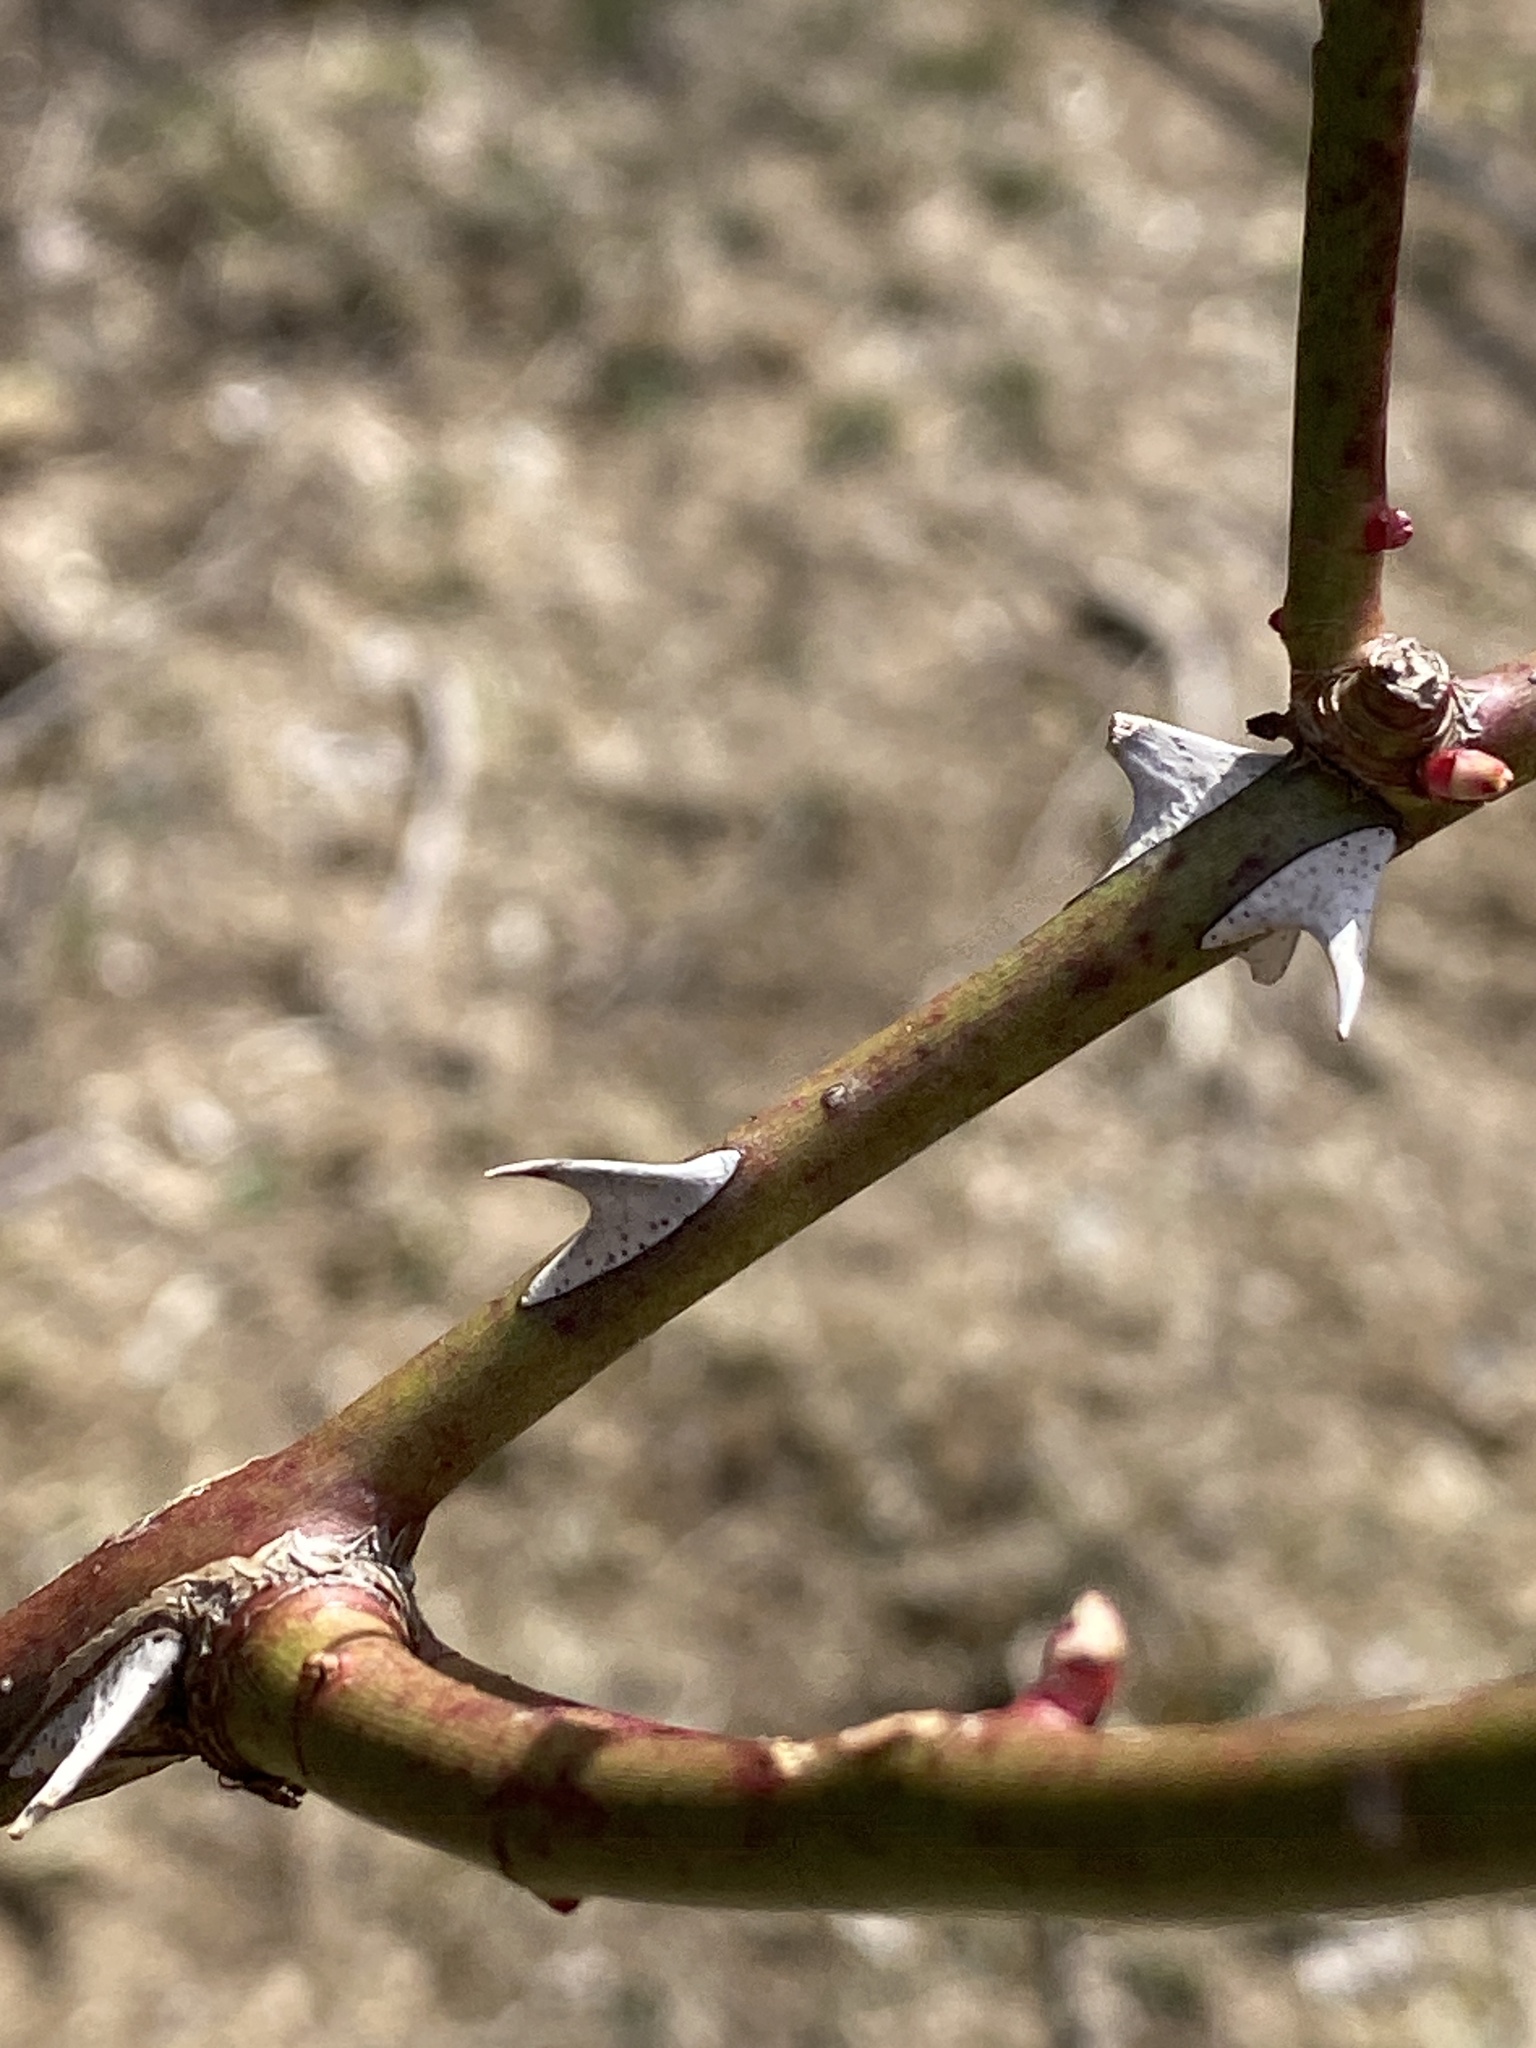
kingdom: Plantae
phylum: Tracheophyta
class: Magnoliopsida
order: Rosales
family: Rosaceae
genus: Rosa
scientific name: Rosa multiflora
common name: Multiflora rose
